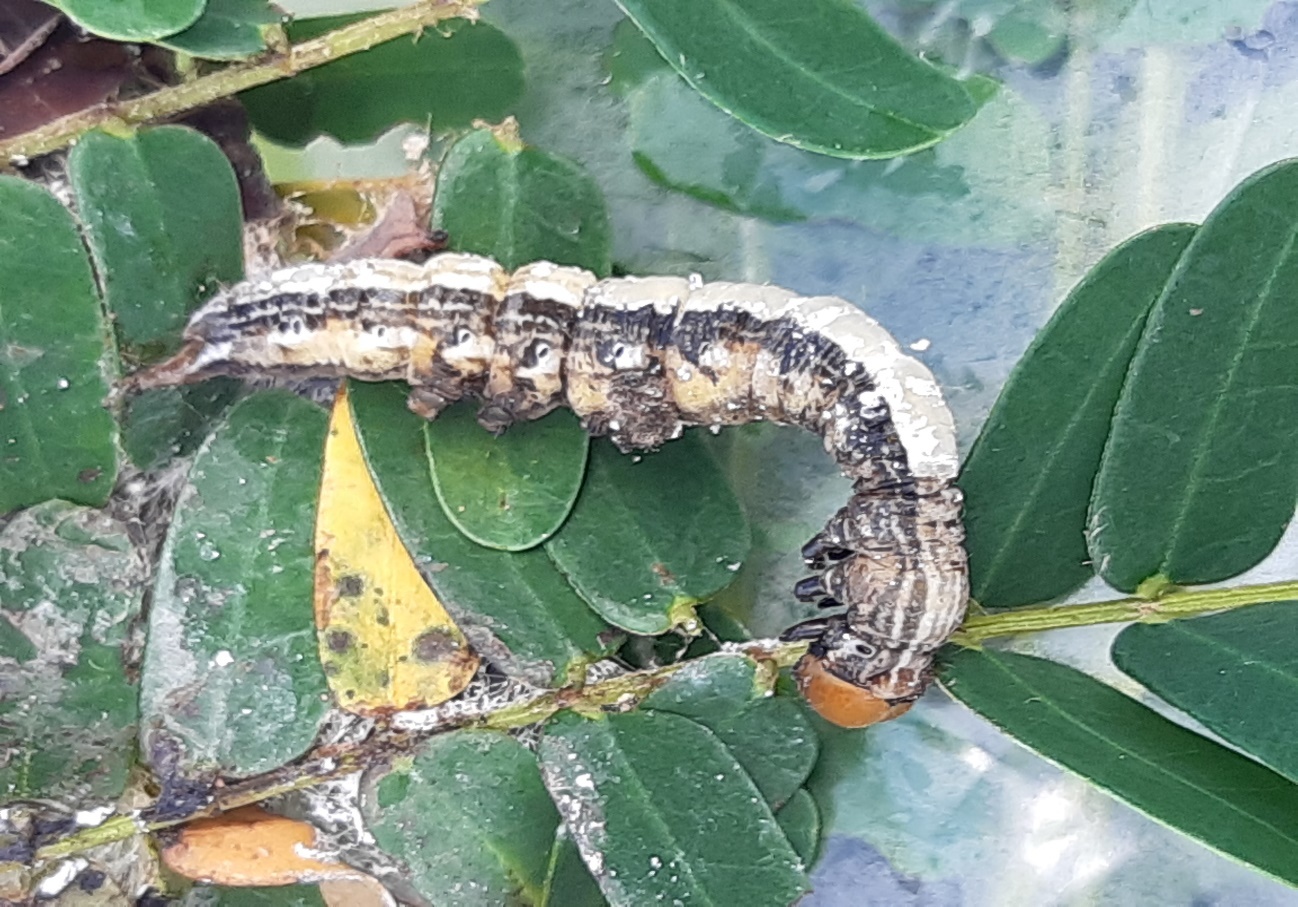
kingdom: Animalia
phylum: Arthropoda
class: Insecta
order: Lepidoptera
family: Erebidae
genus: Pericyma
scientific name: Pericyma cruegeri
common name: Poinciana looper
